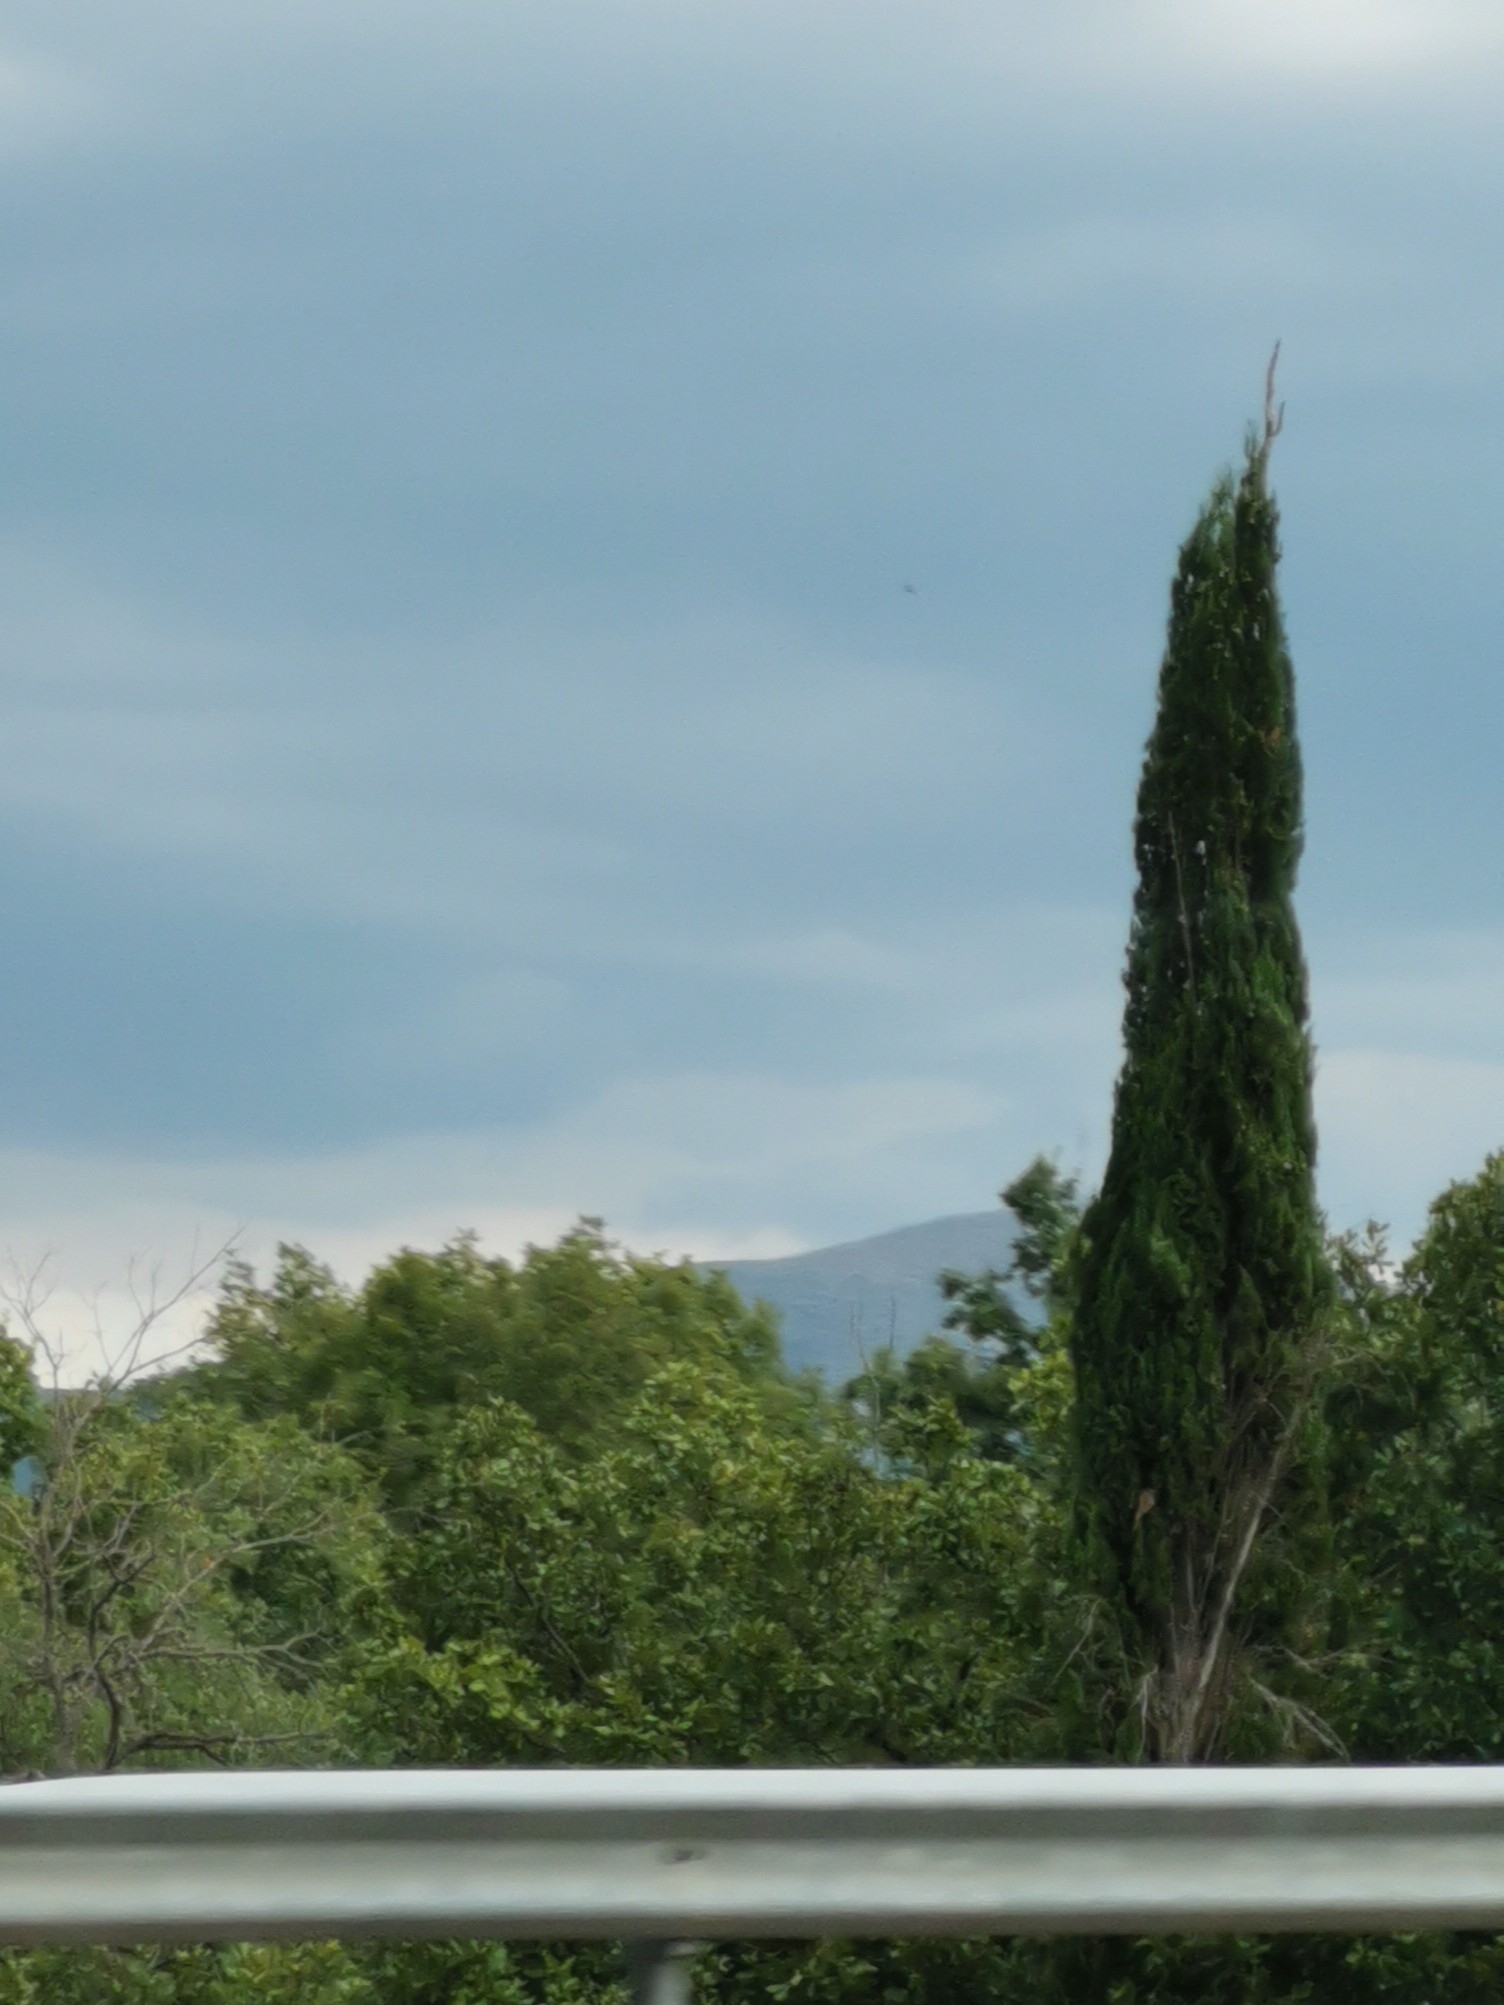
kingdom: Plantae
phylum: Tracheophyta
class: Pinopsida
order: Pinales
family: Cupressaceae
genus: Cupressus
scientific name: Cupressus sempervirens
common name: Italian cypress
